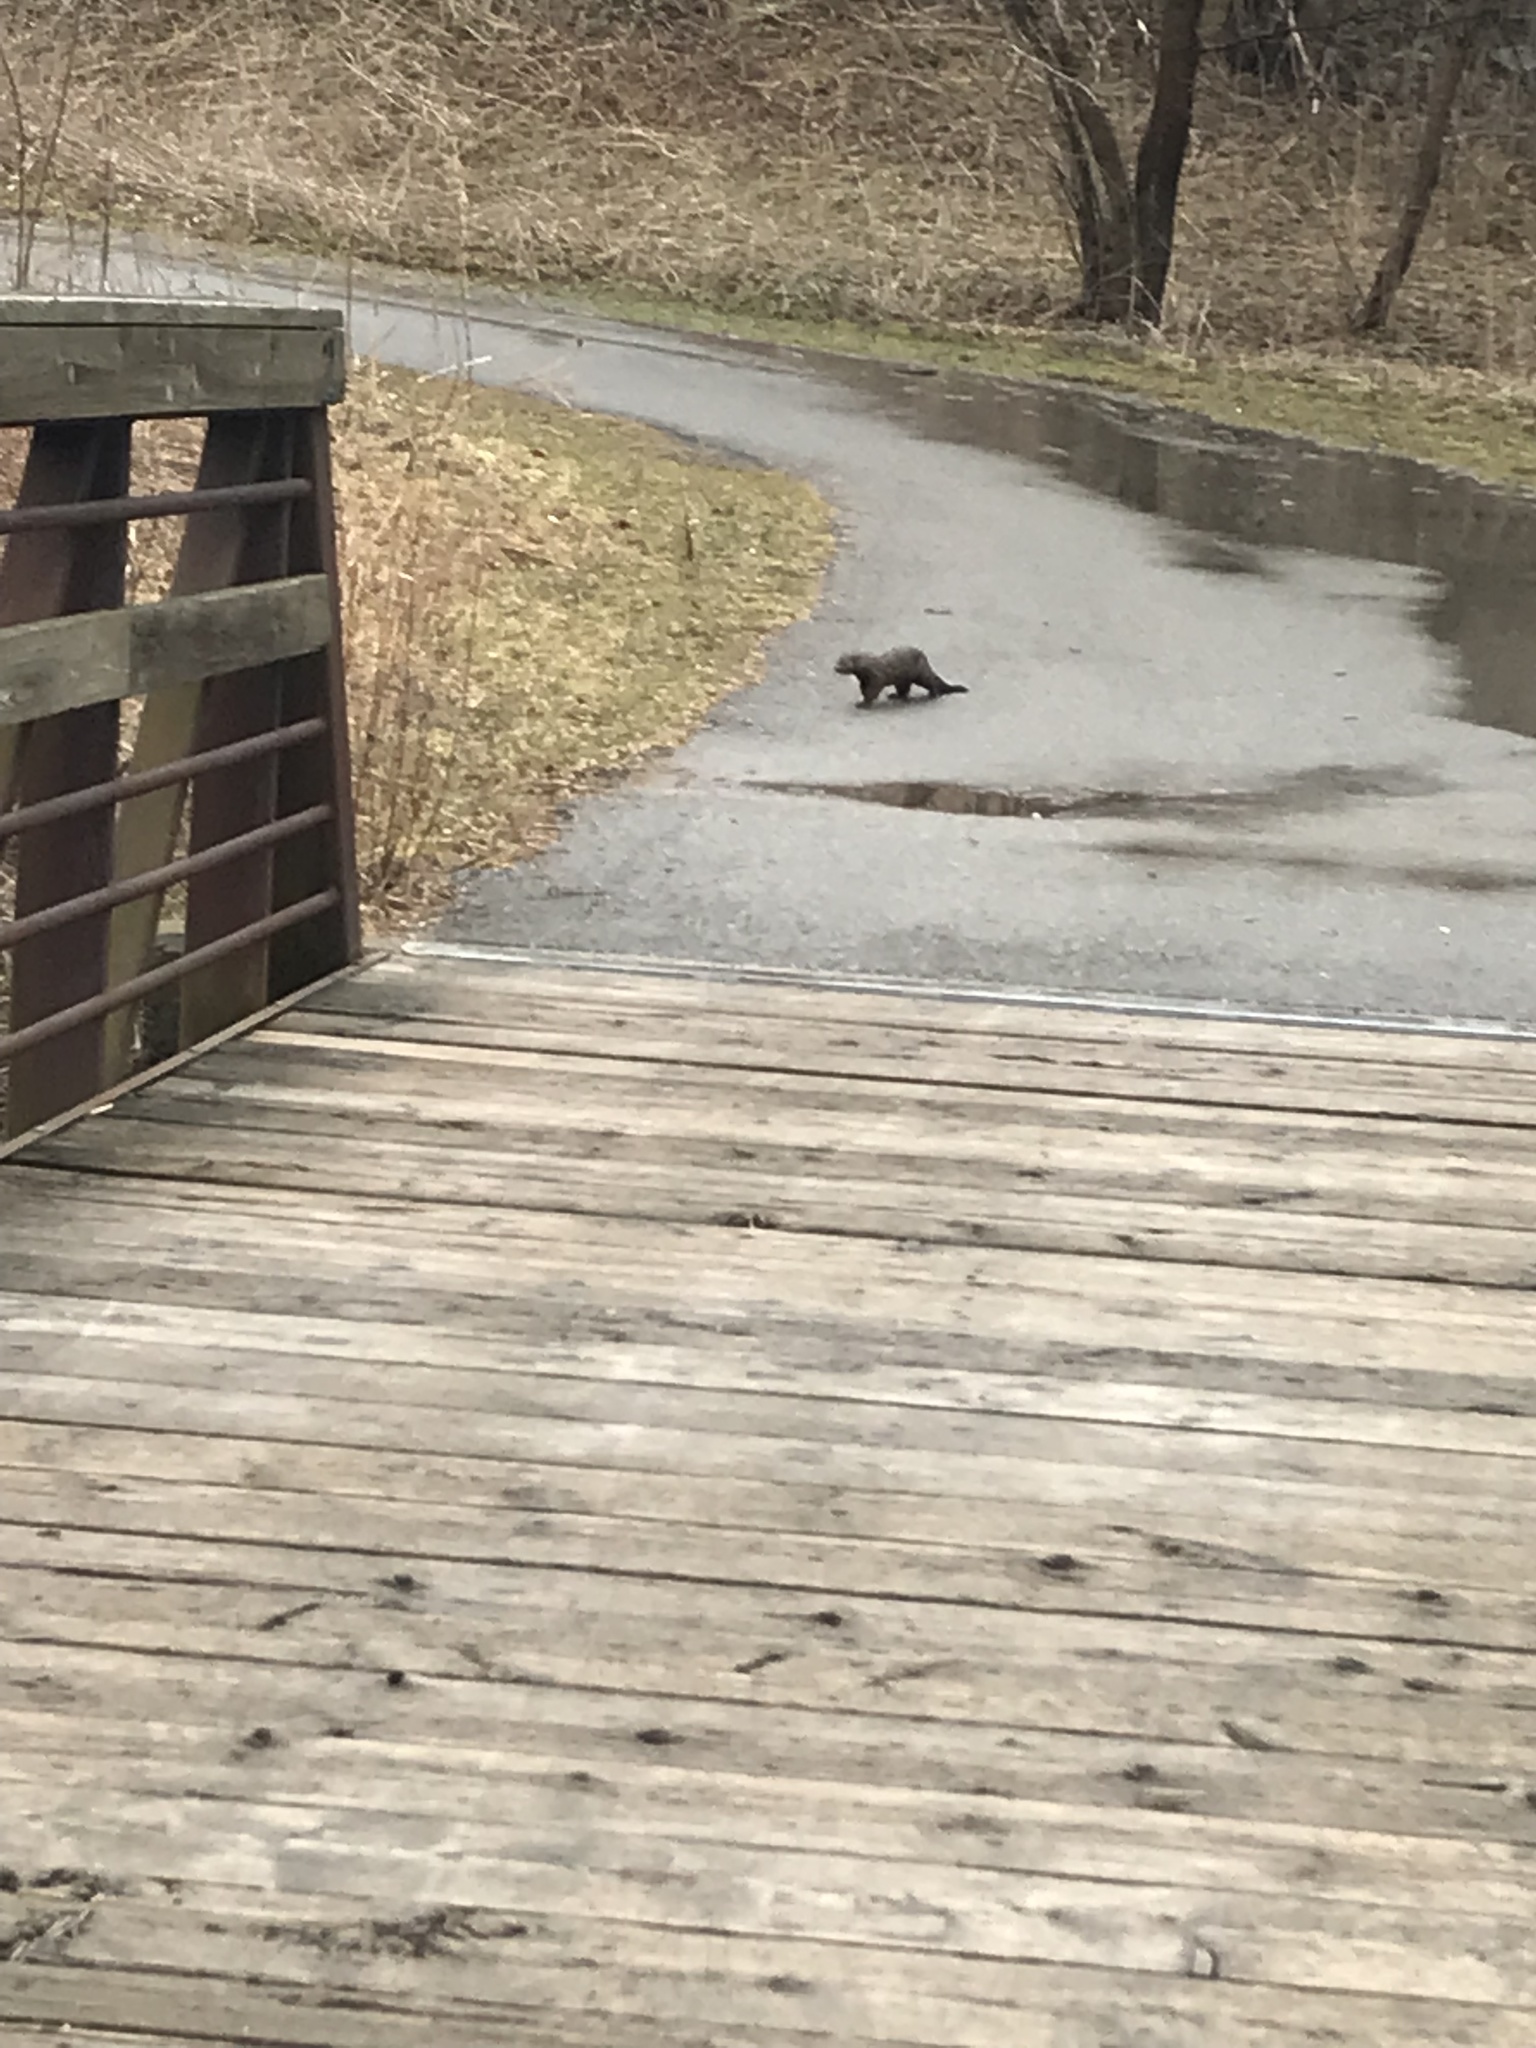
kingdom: Animalia
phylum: Chordata
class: Mammalia
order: Carnivora
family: Mustelidae
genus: Mustela
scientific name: Mustela
